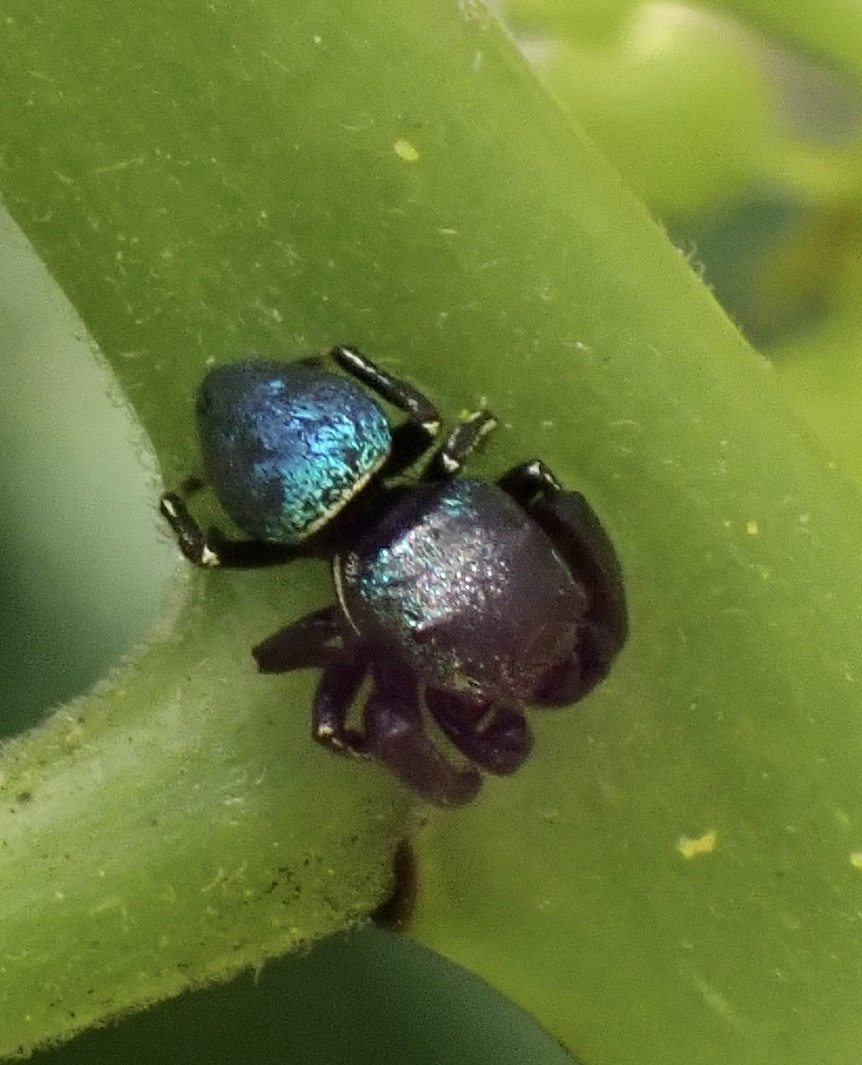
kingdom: Animalia
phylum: Arthropoda
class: Arachnida
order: Araneae
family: Salticidae
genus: Sassacus
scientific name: Sassacus papenhoei
